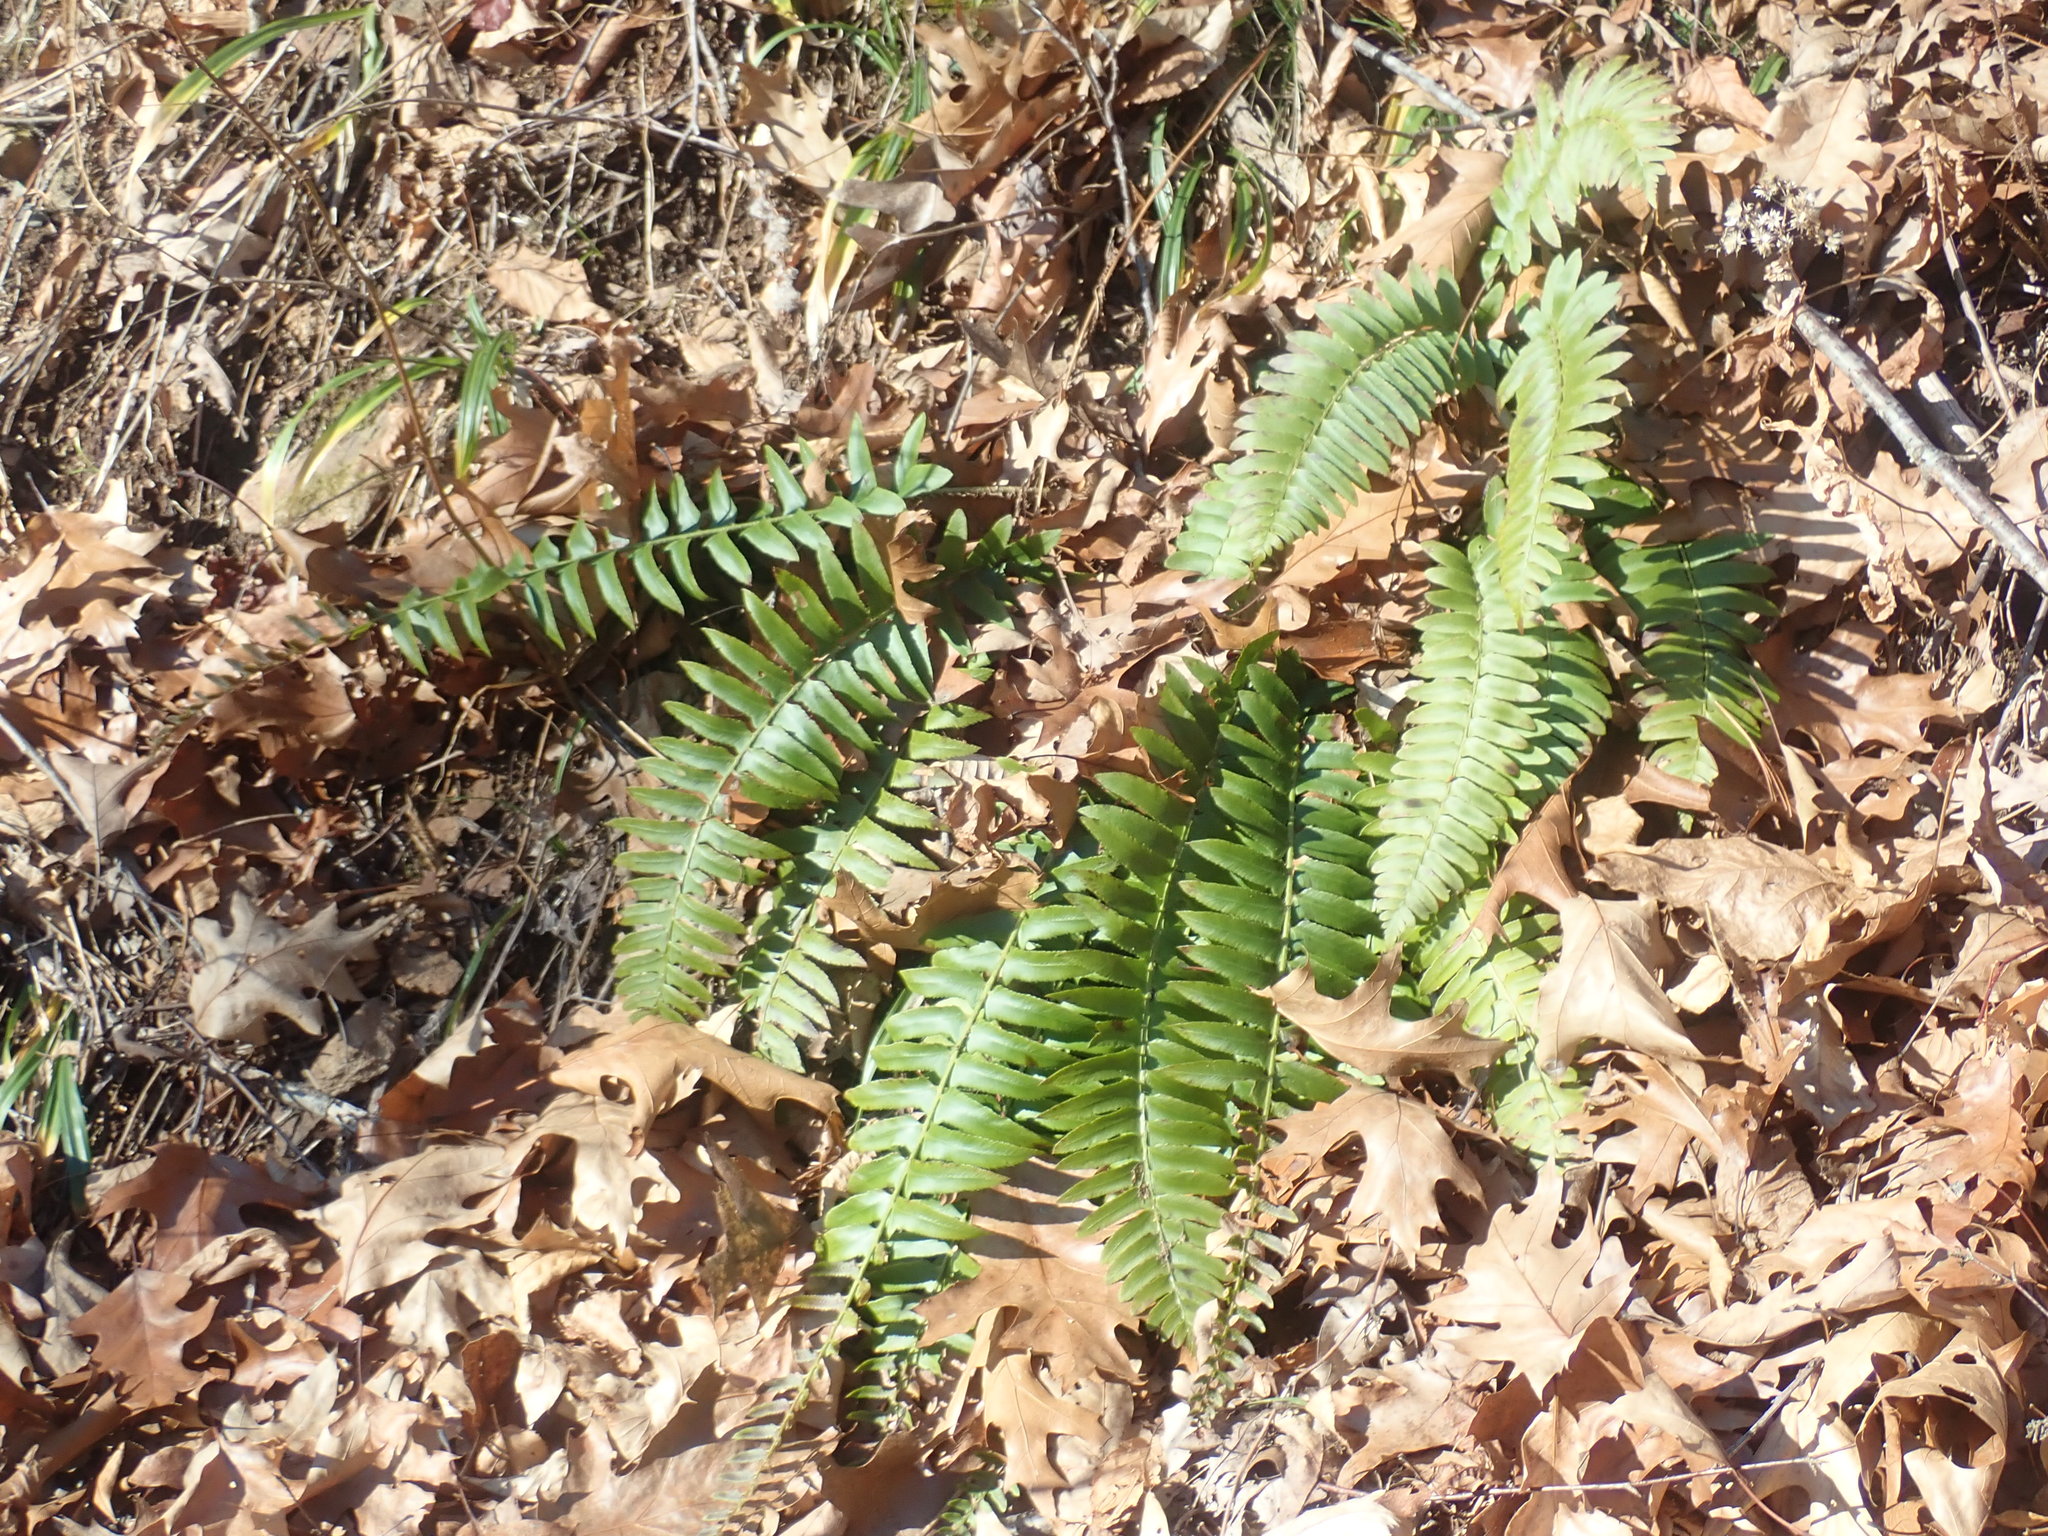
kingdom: Plantae
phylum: Tracheophyta
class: Polypodiopsida
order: Polypodiales
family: Dryopteridaceae
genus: Polystichum
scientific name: Polystichum acrostichoides
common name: Christmas fern
